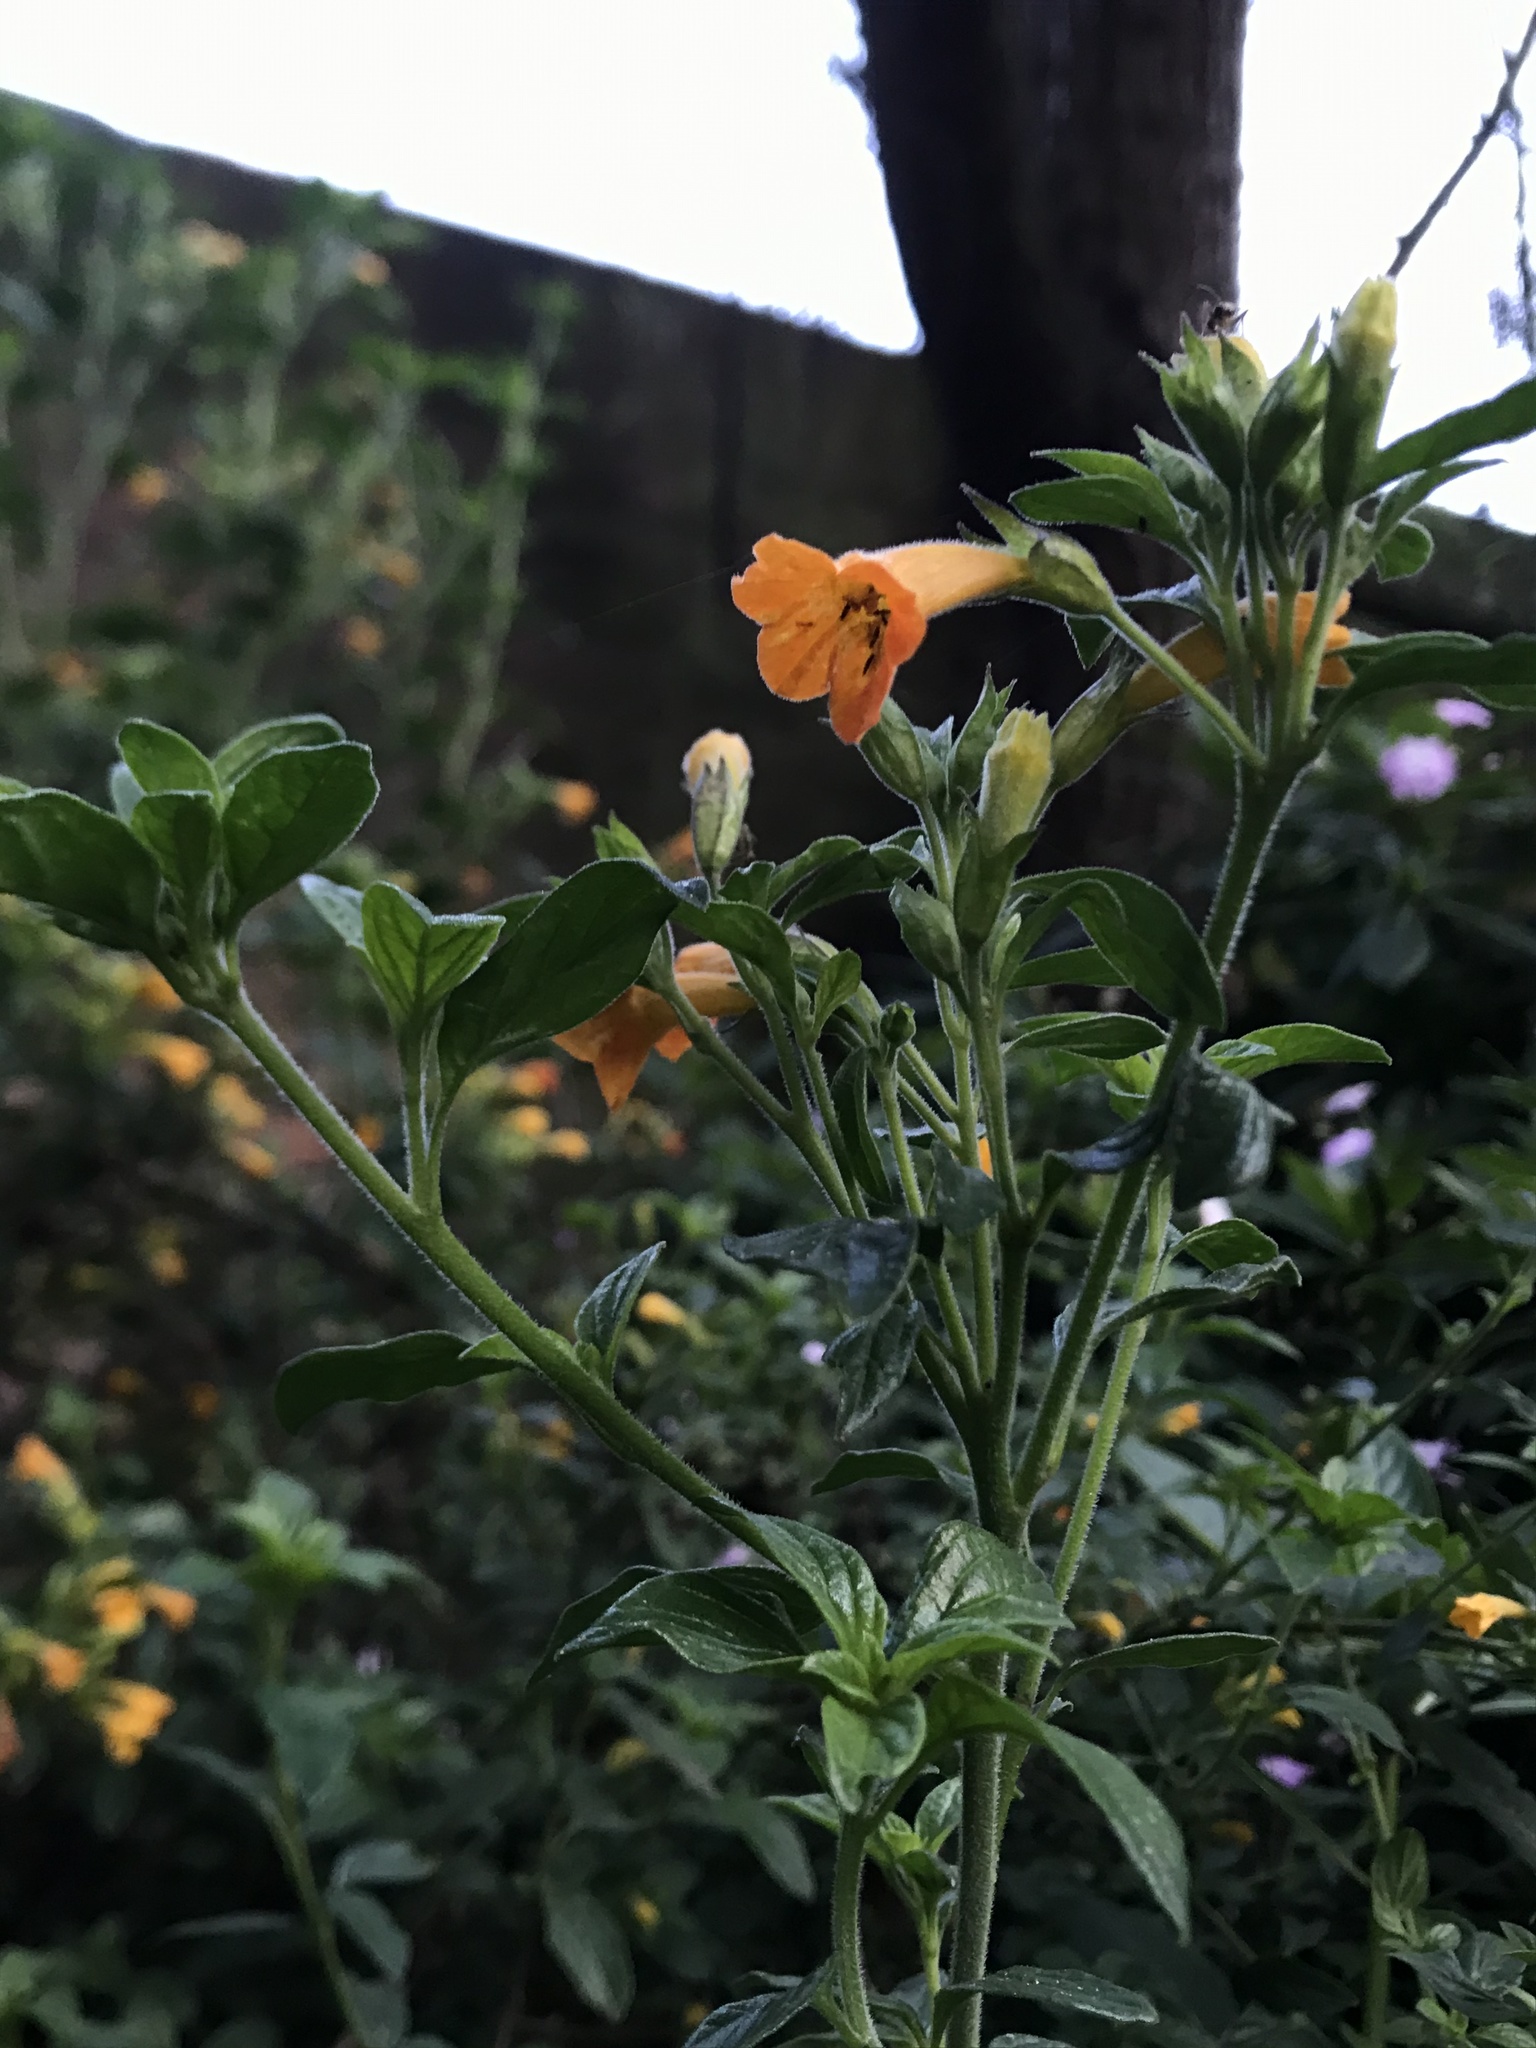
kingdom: Plantae
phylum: Tracheophyta
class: Magnoliopsida
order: Solanales
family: Solanaceae
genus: Streptosolen
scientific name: Streptosolen jamesonii
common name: Marmalade bush
